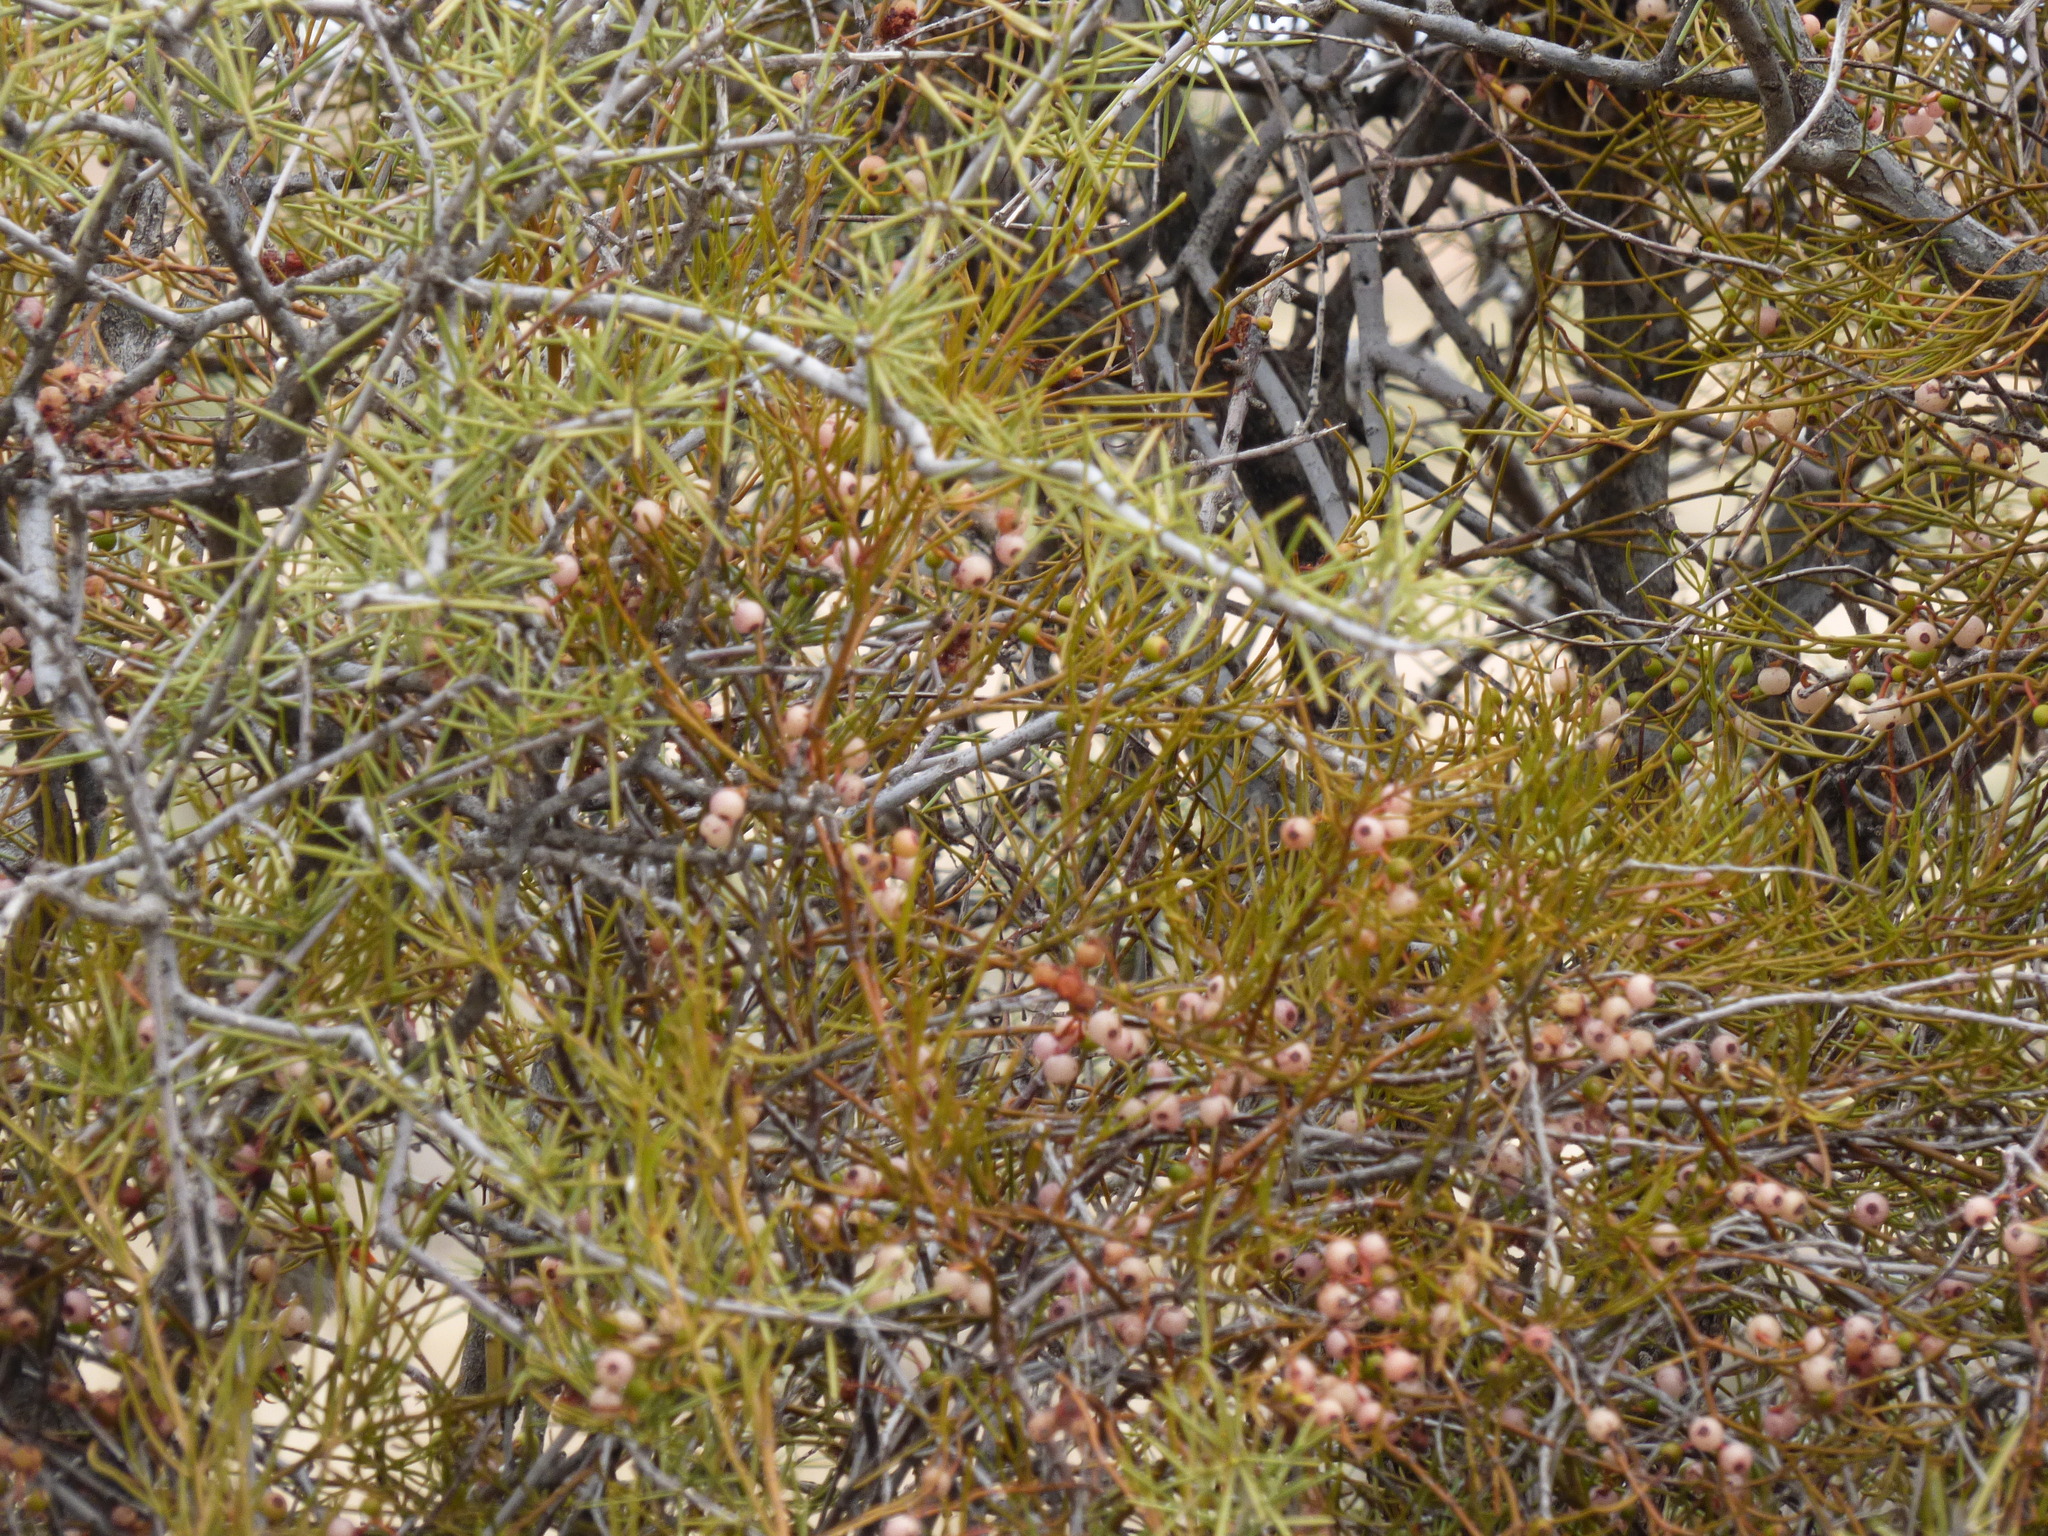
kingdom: Plantae
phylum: Tracheophyta
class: Magnoliopsida
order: Santalales
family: Loranthaceae
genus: Amyema
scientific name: Amyema preissii
